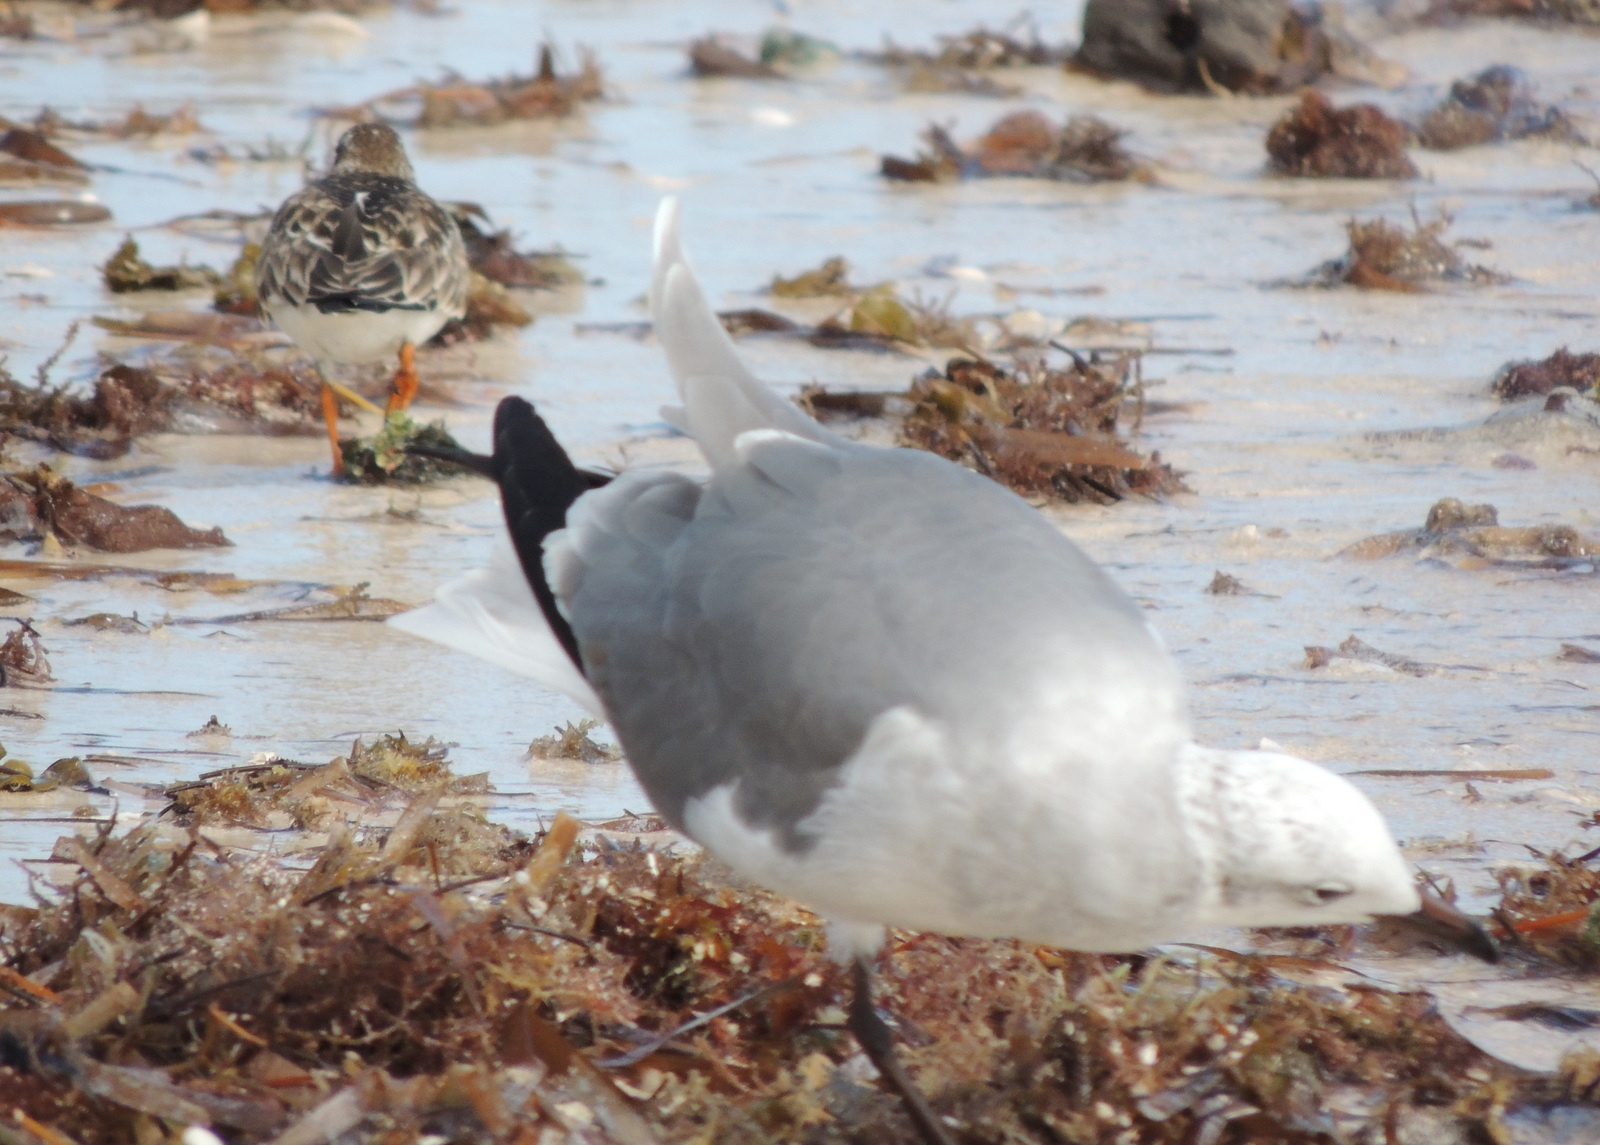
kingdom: Animalia
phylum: Chordata
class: Aves
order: Charadriiformes
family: Laridae
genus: Leucophaeus
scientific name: Leucophaeus atricilla
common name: Laughing gull
